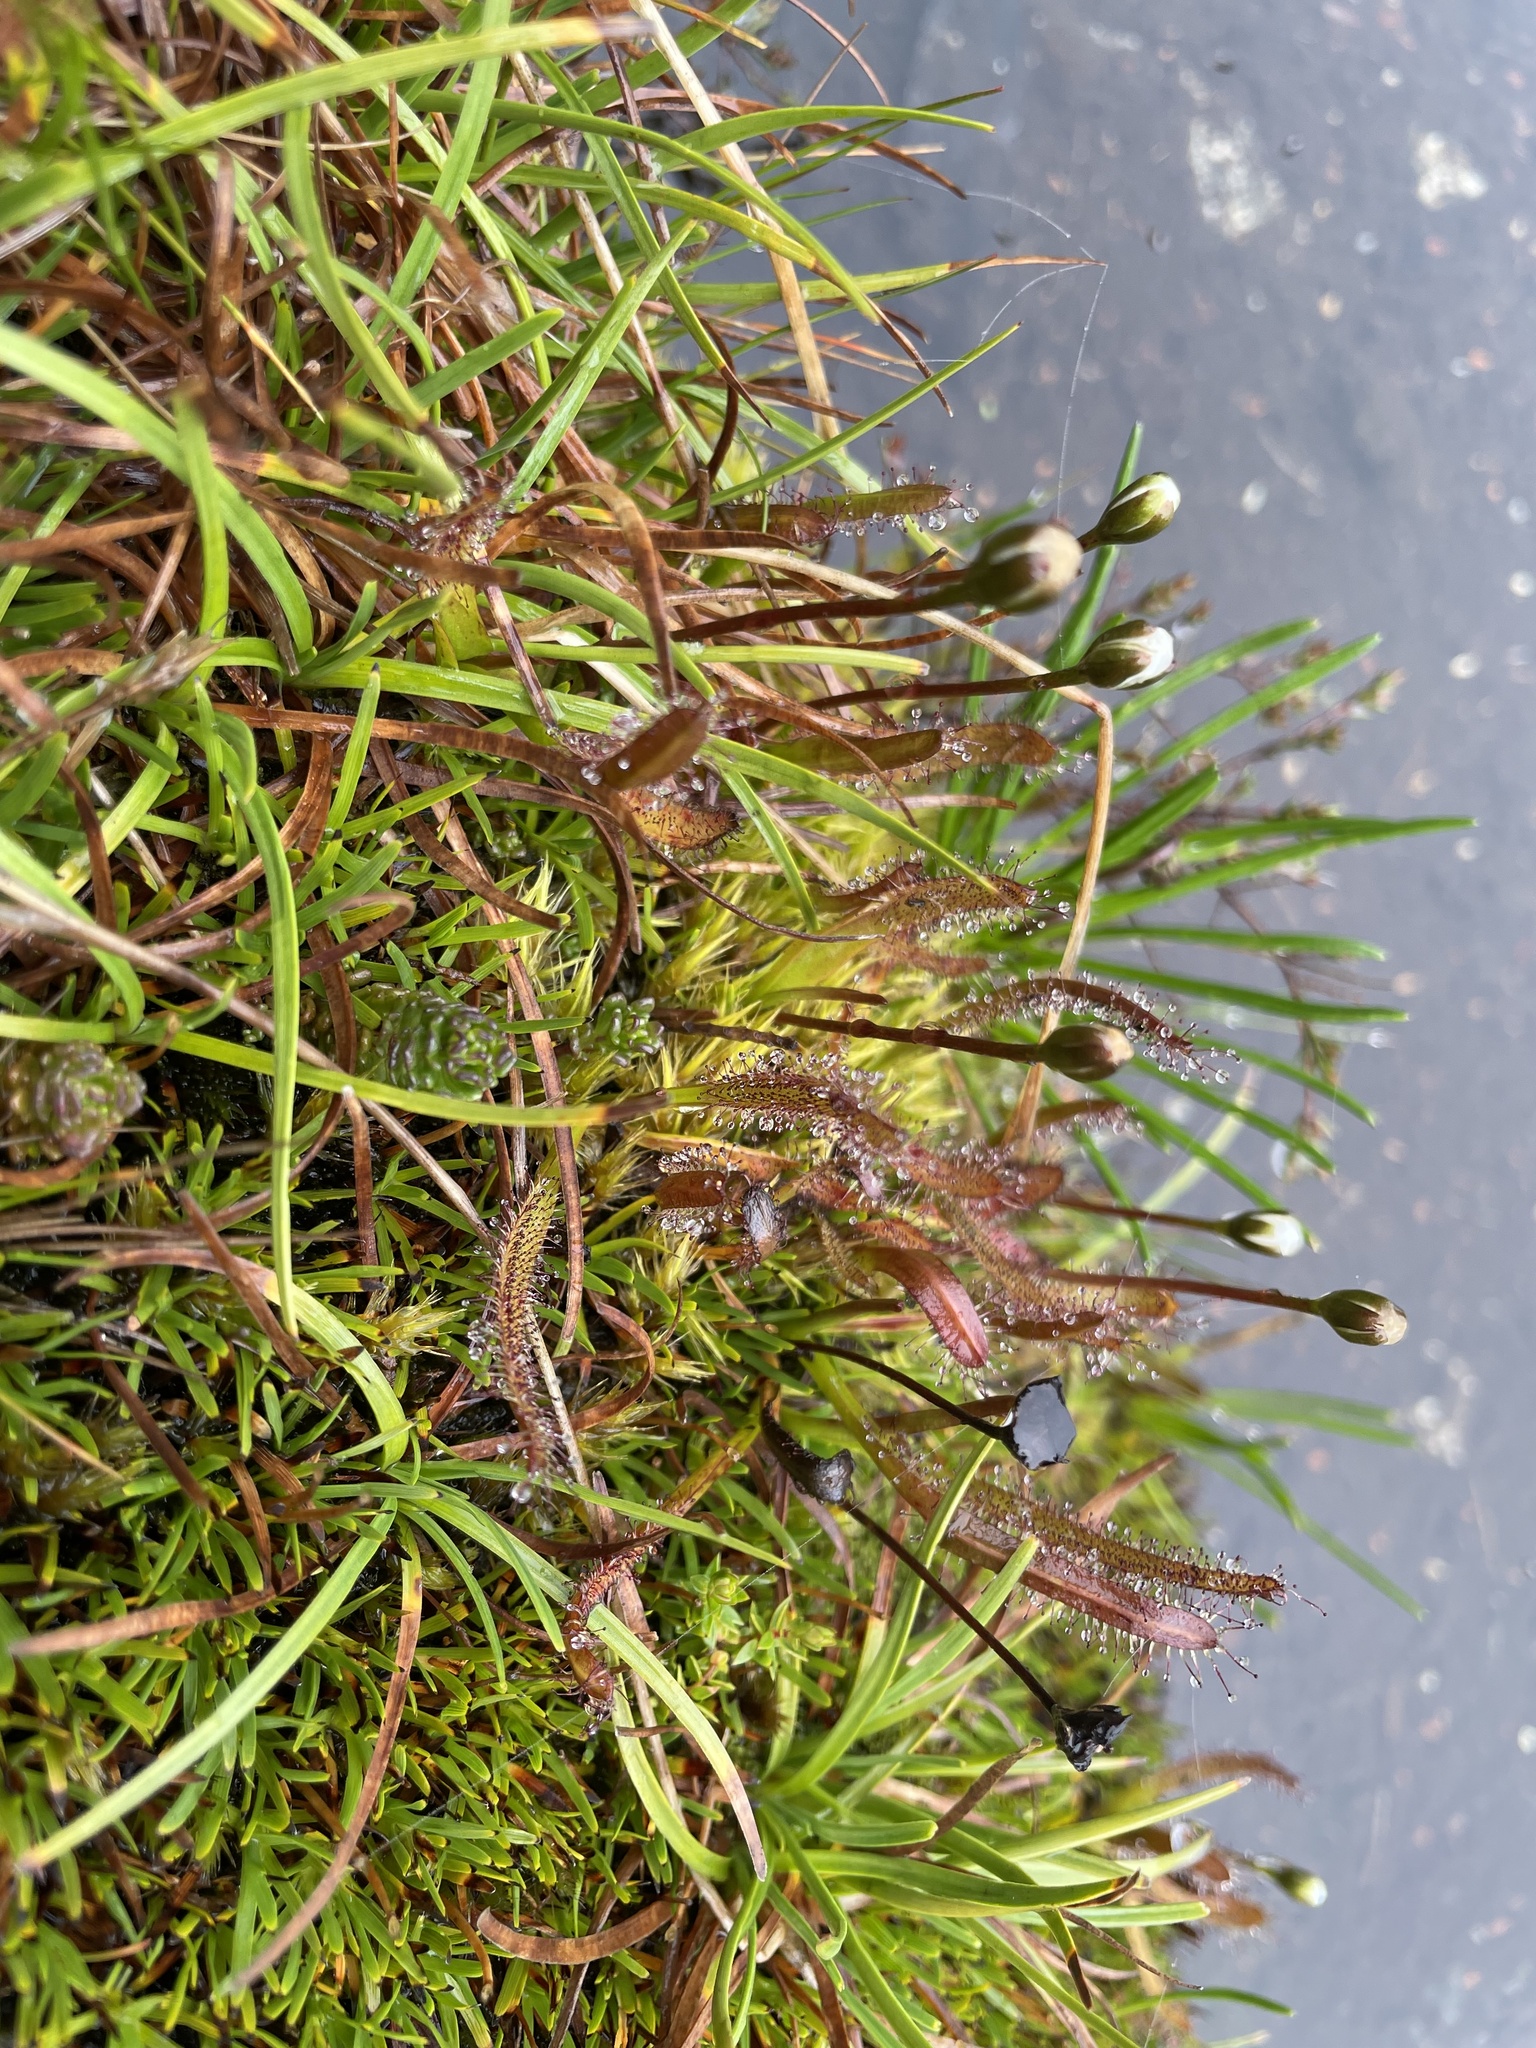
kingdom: Plantae
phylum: Tracheophyta
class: Magnoliopsida
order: Caryophyllales
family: Droseraceae
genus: Drosera
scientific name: Drosera arcturi
